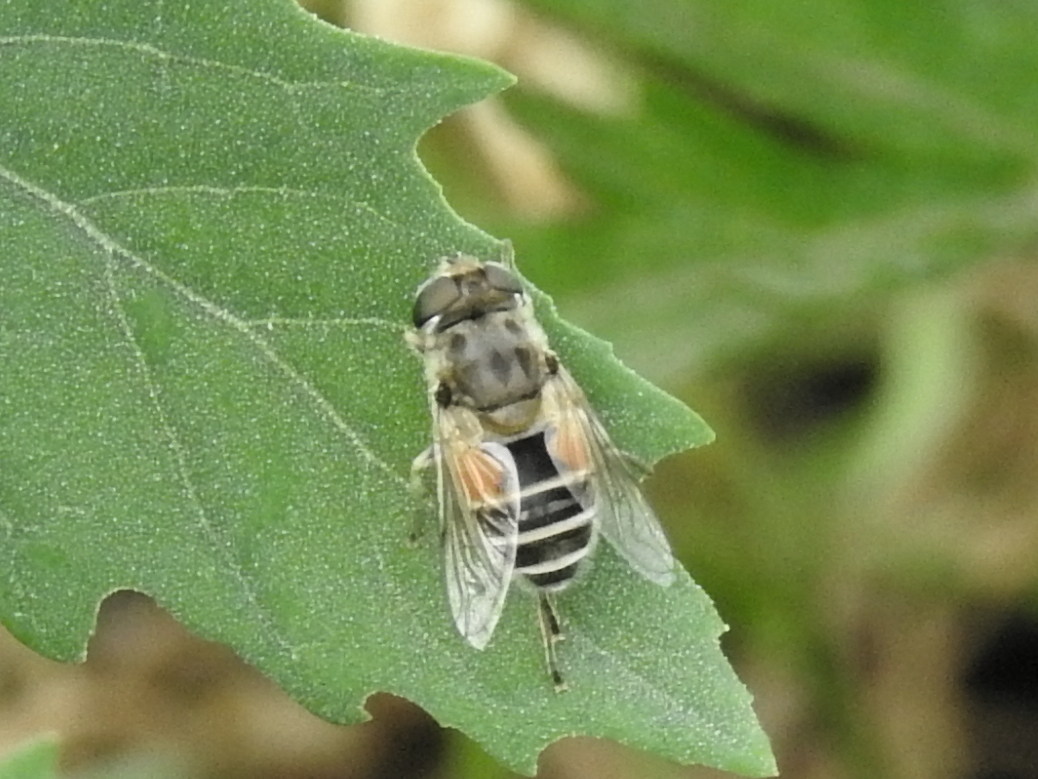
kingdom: Animalia
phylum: Arthropoda
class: Insecta
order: Diptera
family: Syrphidae
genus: Eristalis
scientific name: Eristalis arbustorum
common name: Hover fly
